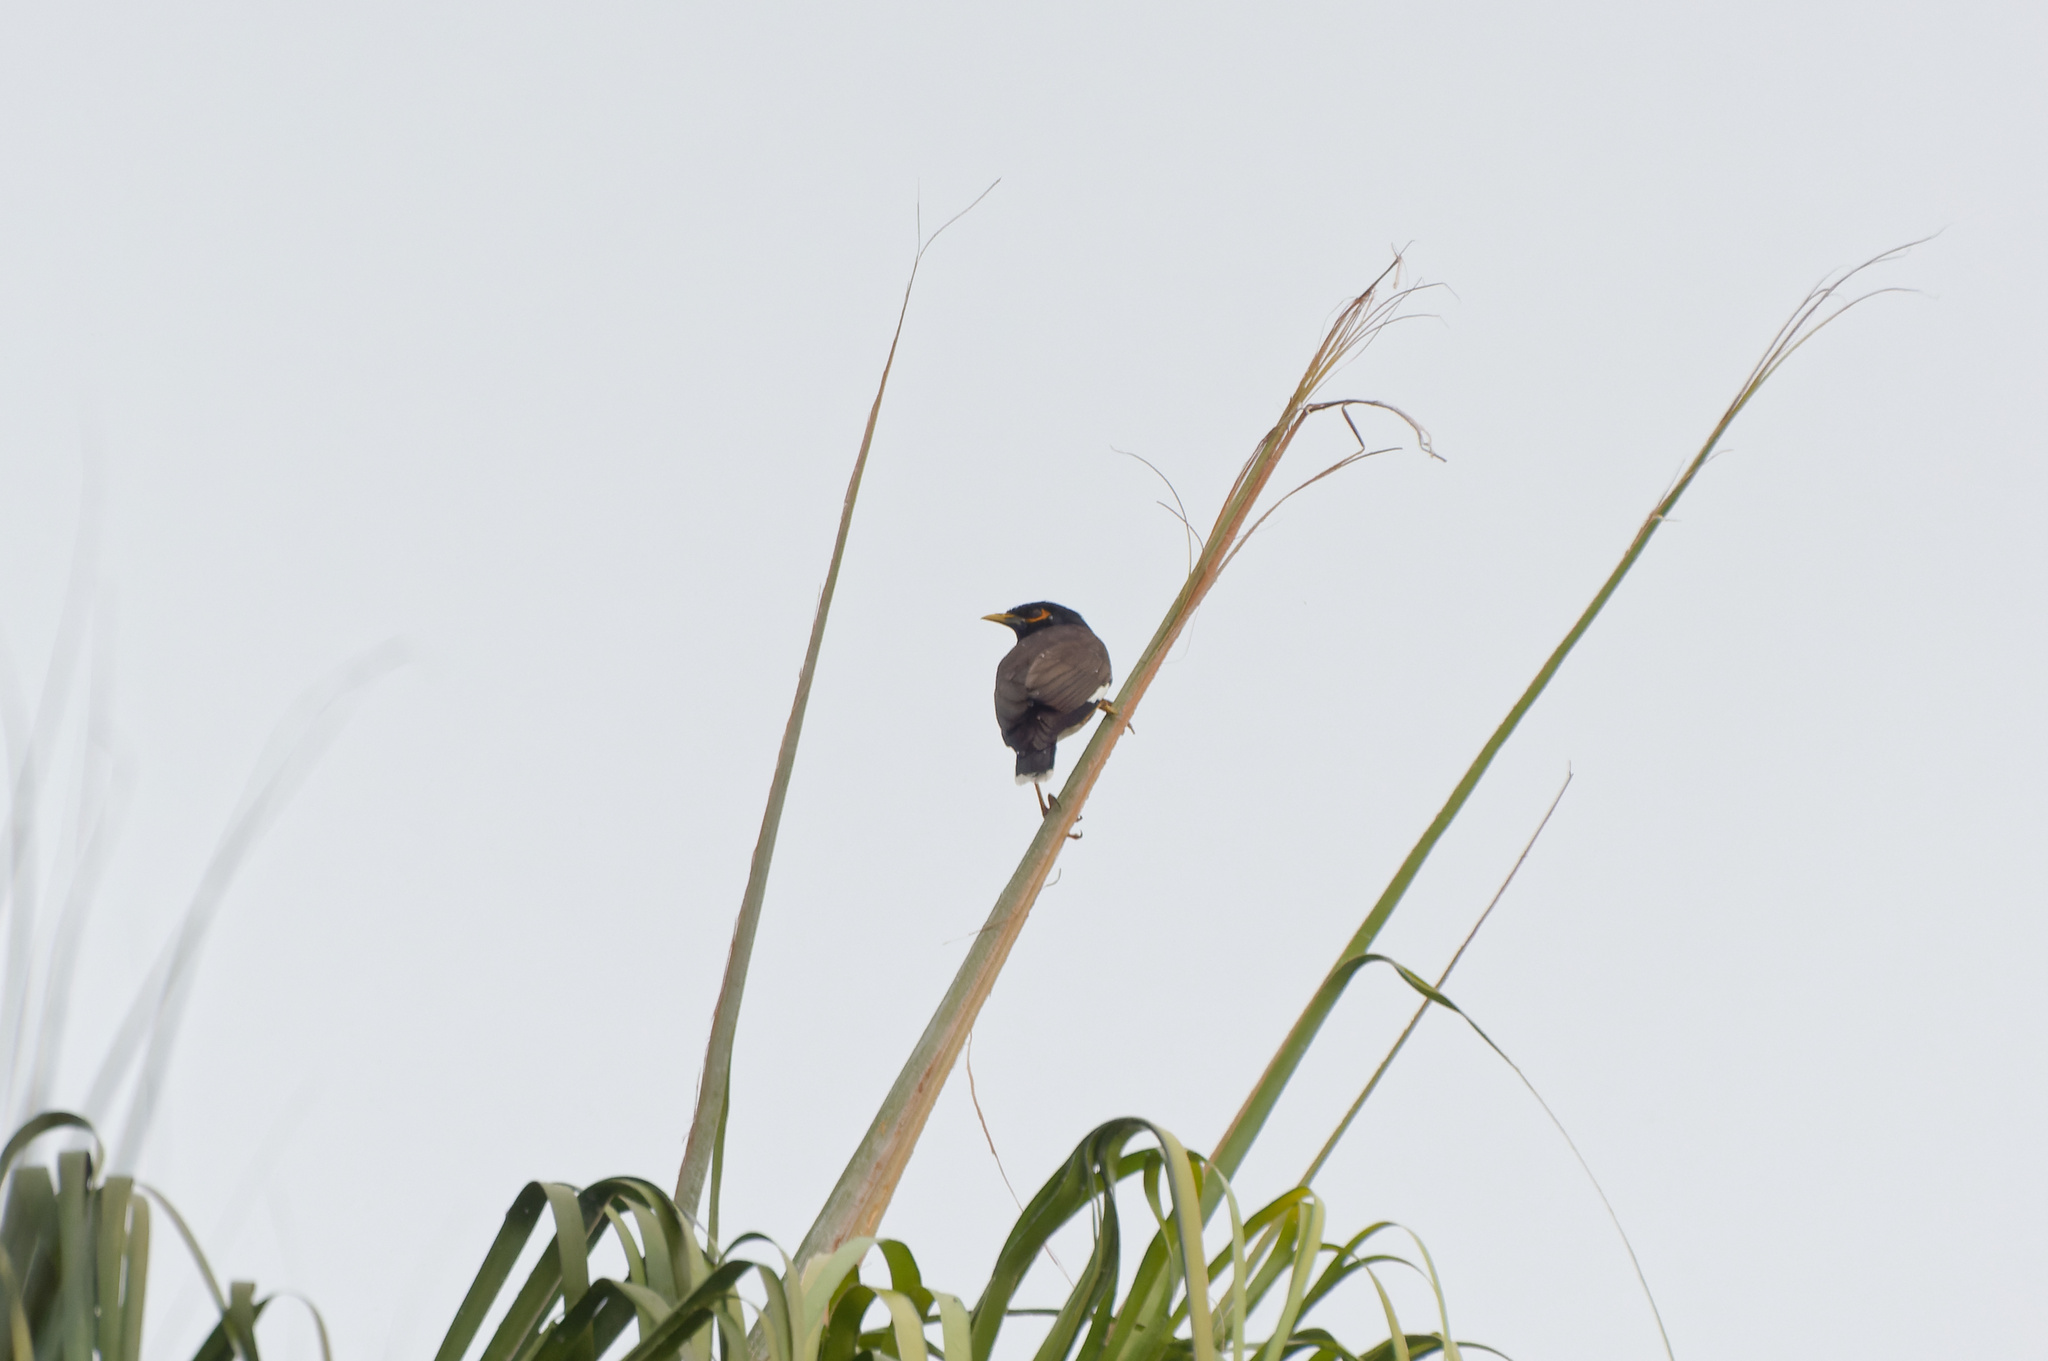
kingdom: Animalia
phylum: Chordata
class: Aves
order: Passeriformes
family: Sturnidae
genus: Acridotheres
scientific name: Acridotheres tristis
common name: Common myna
